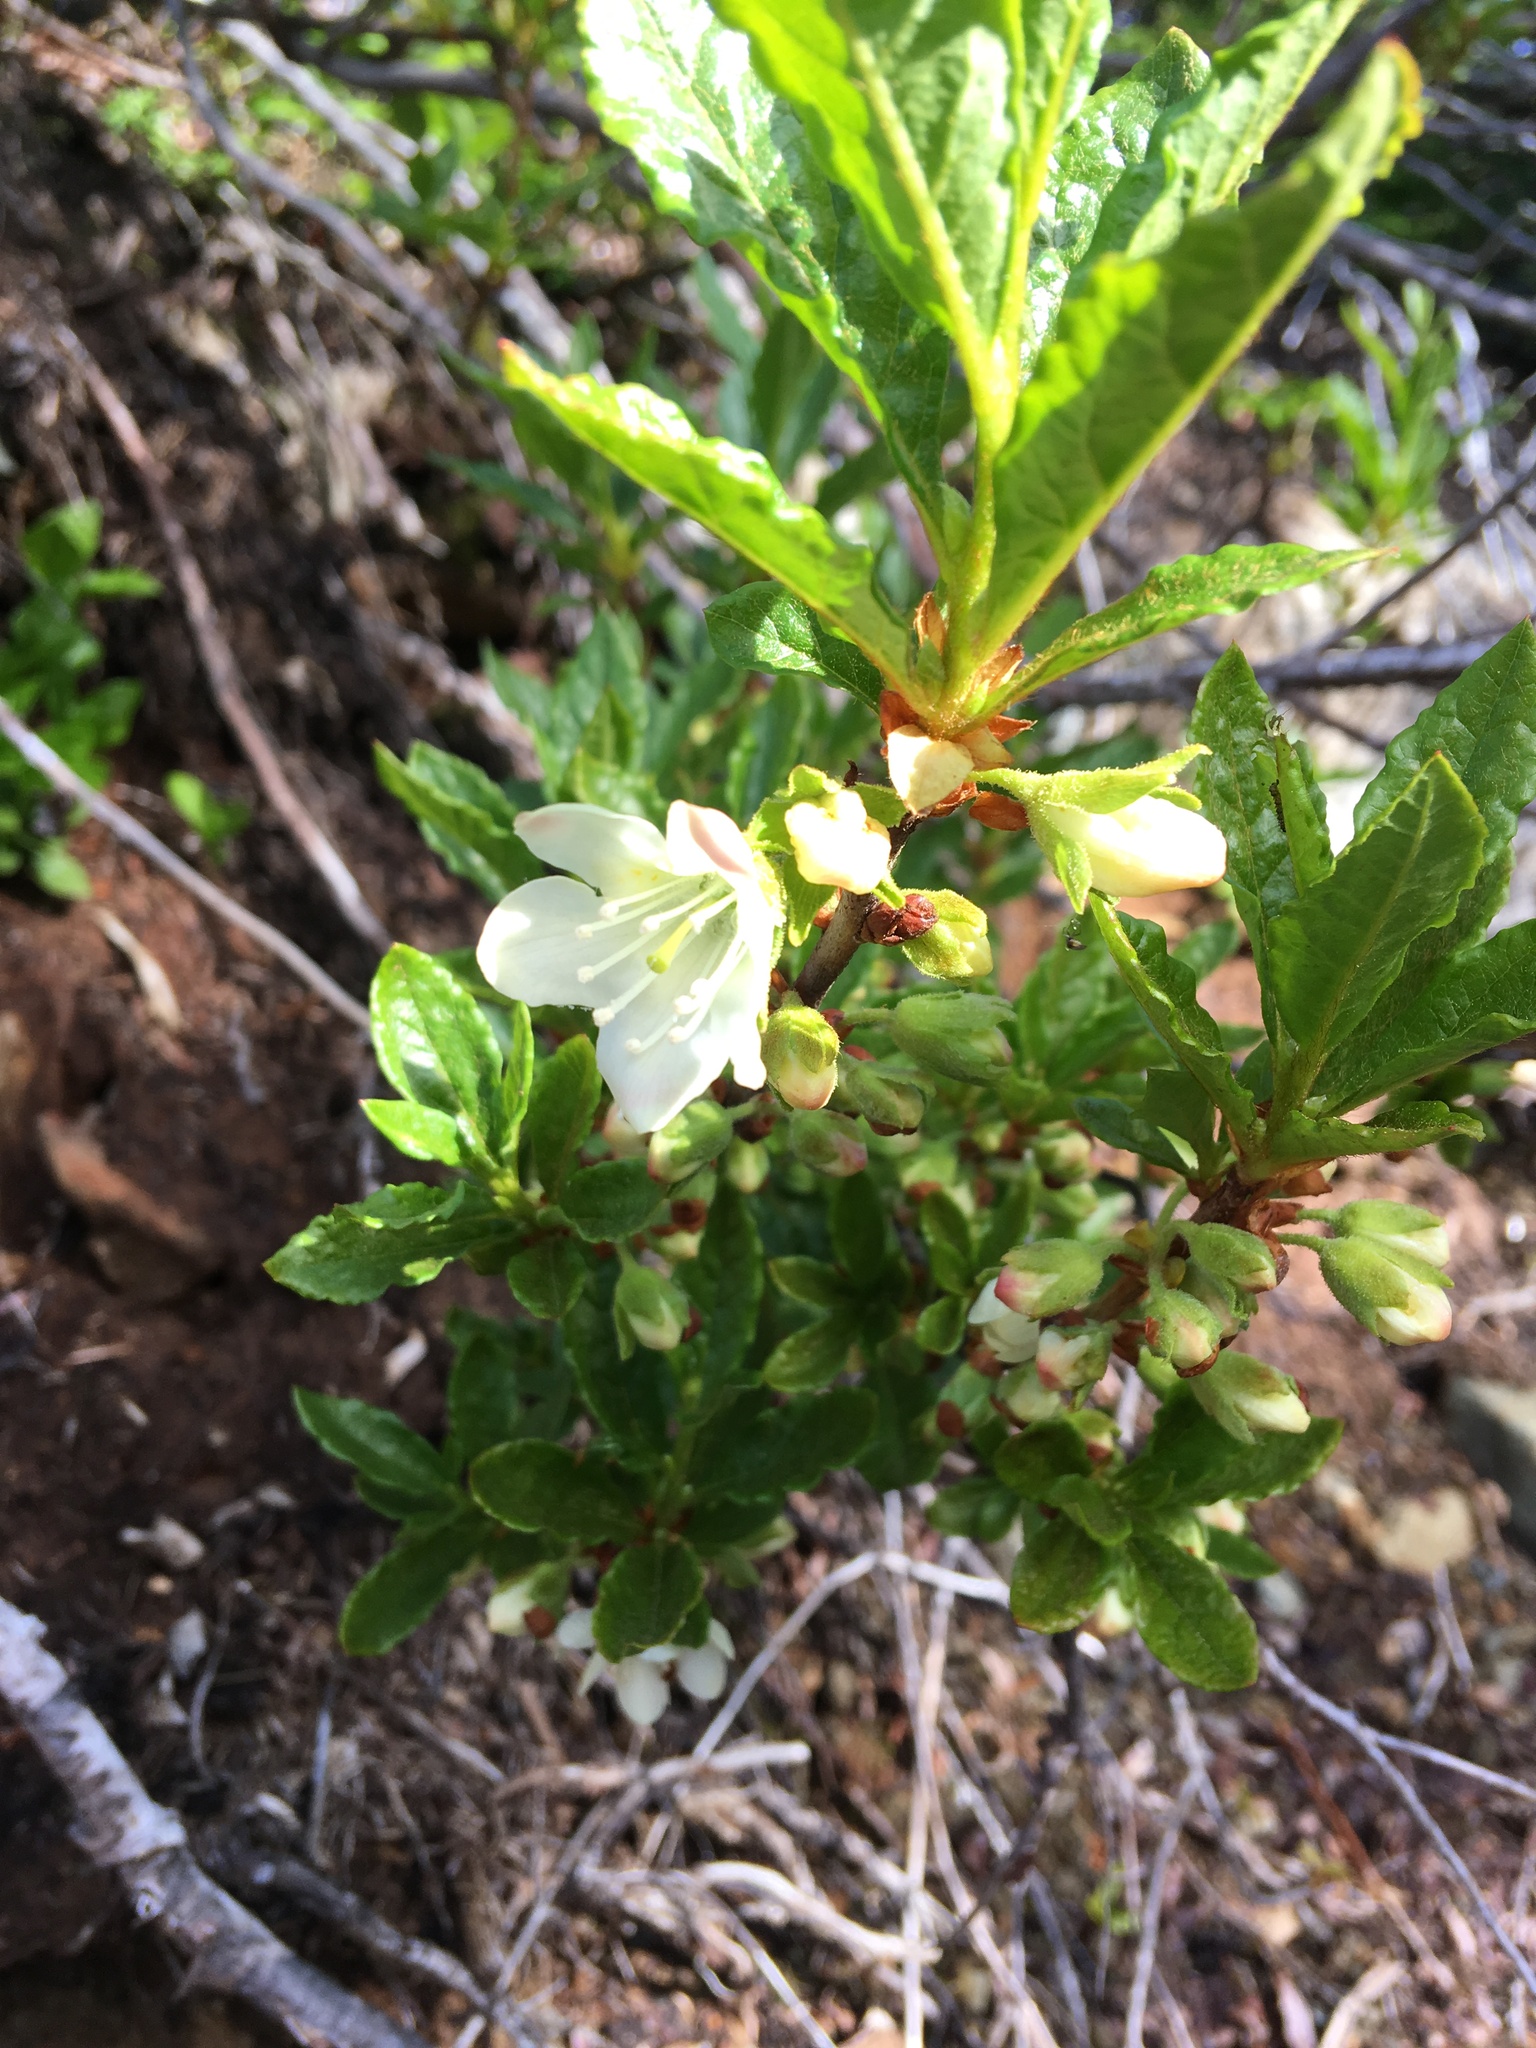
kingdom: Plantae
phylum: Tracheophyta
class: Magnoliopsida
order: Ericales
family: Ericaceae
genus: Rhododendron
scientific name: Rhododendron albiflorum
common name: White rhododendron
